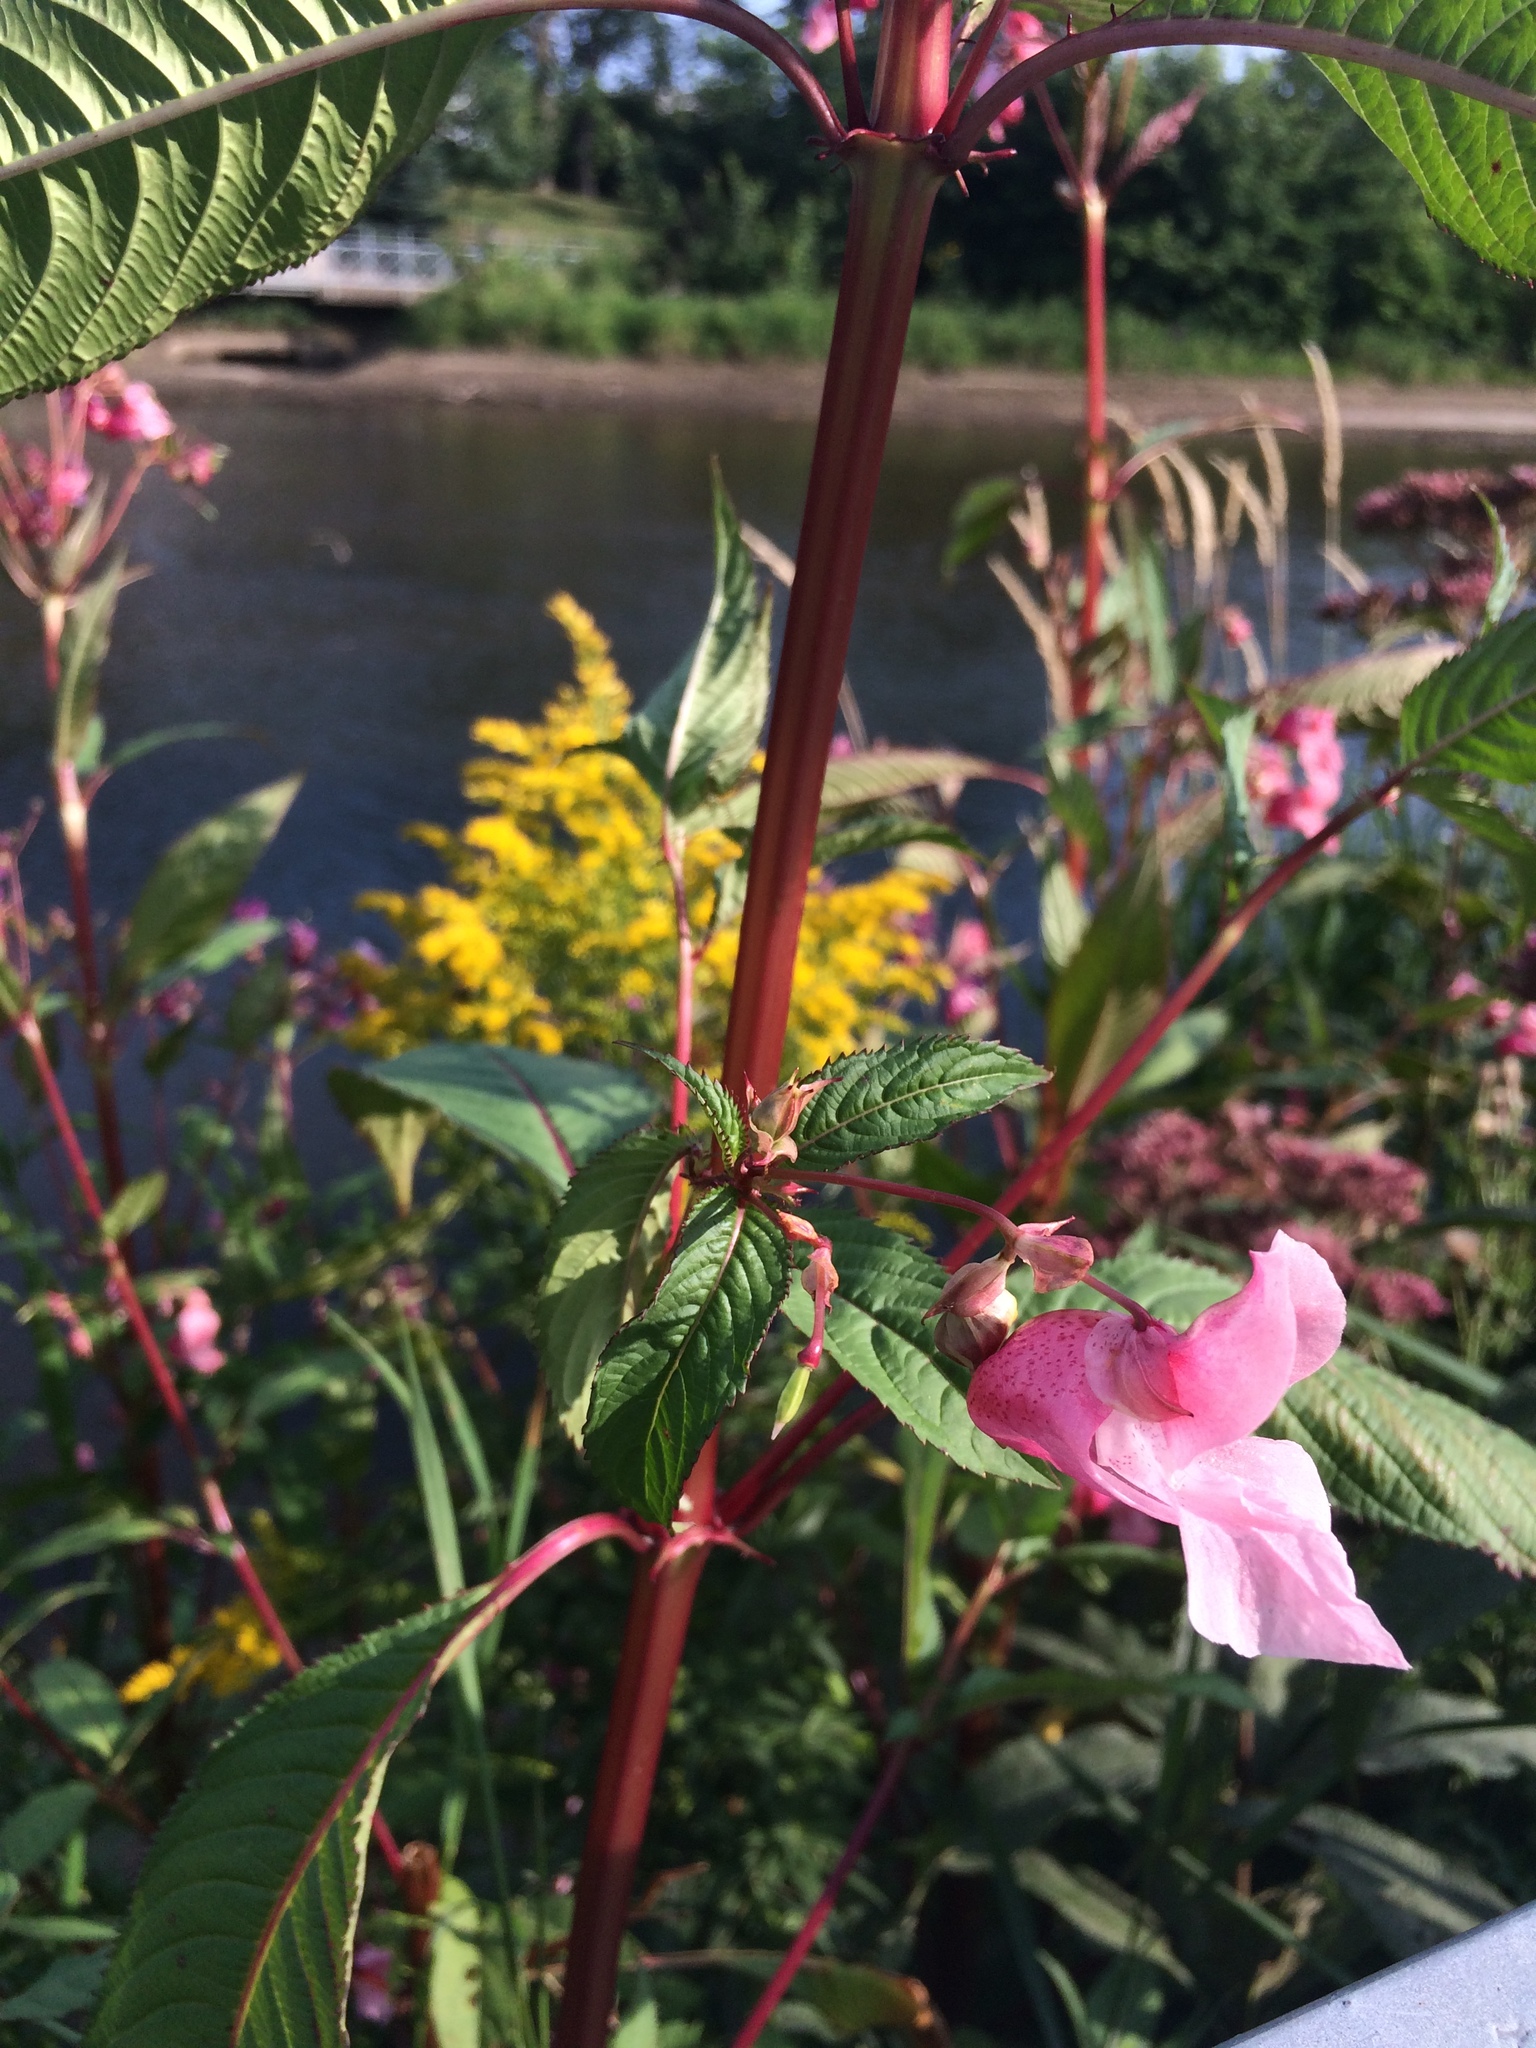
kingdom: Plantae
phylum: Tracheophyta
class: Magnoliopsida
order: Ericales
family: Balsaminaceae
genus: Impatiens
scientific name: Impatiens glandulifera
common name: Himalayan balsam
